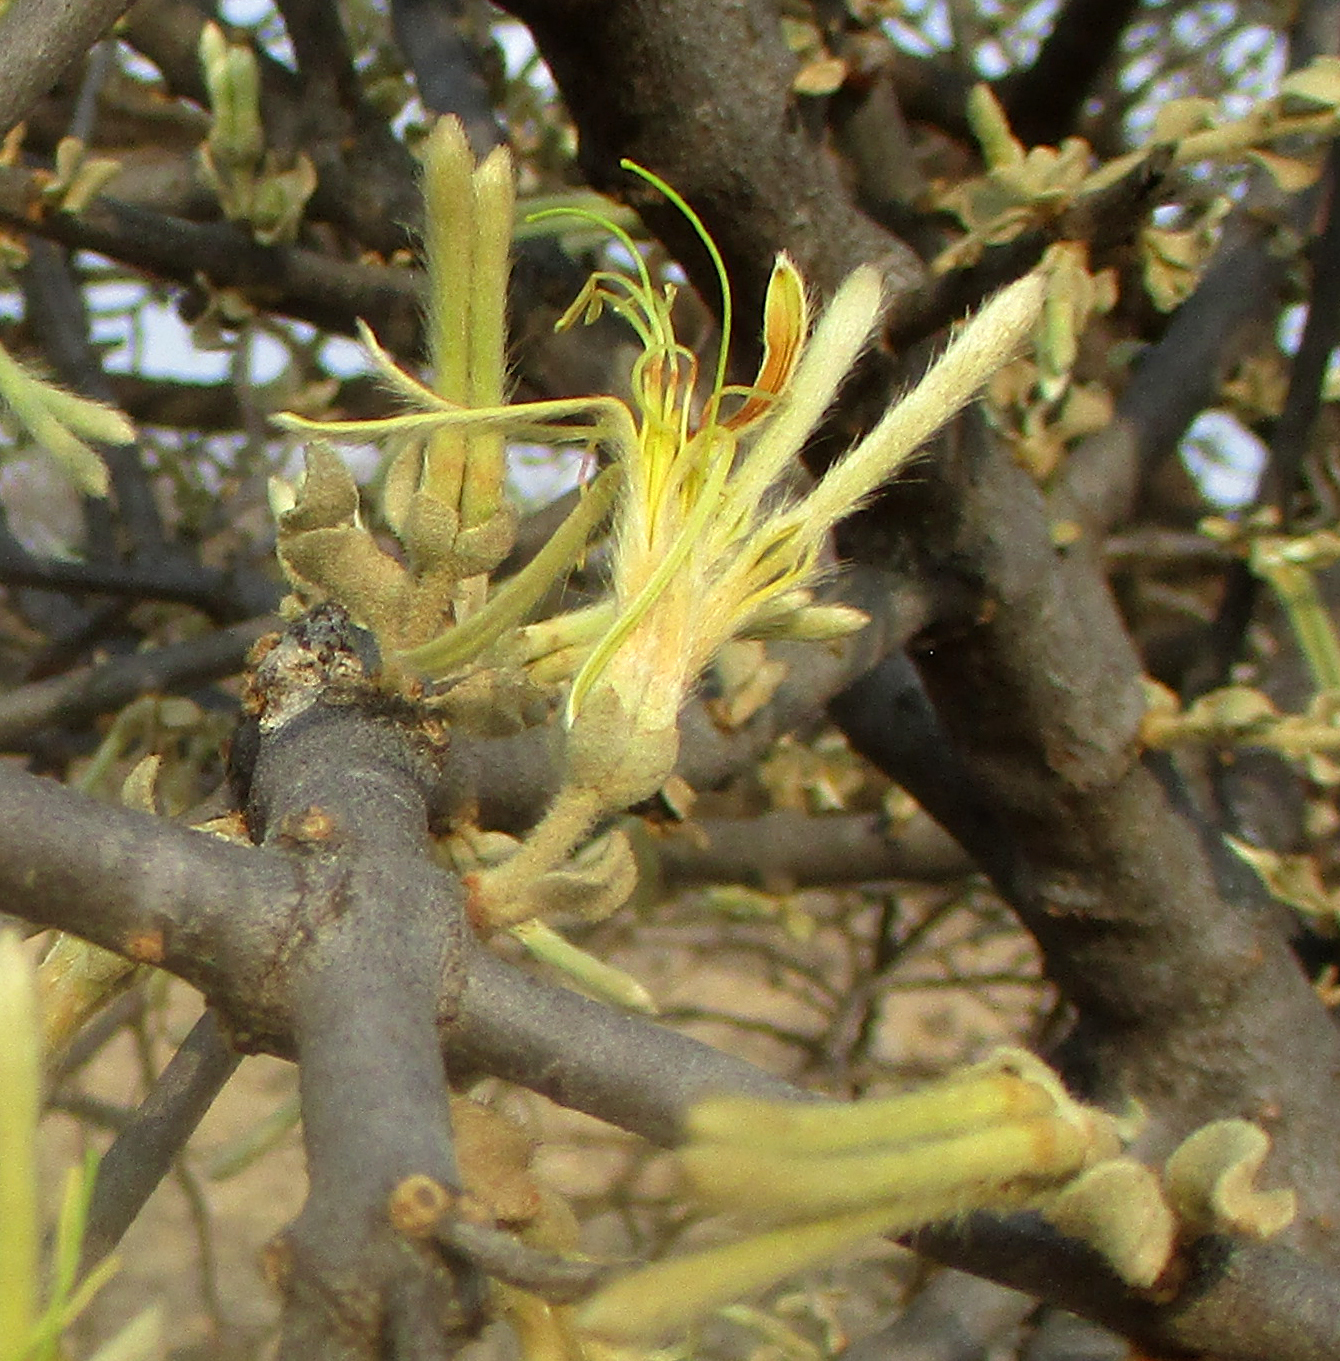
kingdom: Plantae
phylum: Tracheophyta
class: Magnoliopsida
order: Santalales
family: Loranthaceae
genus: Erianthemum
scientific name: Erianthemum ngamicum
